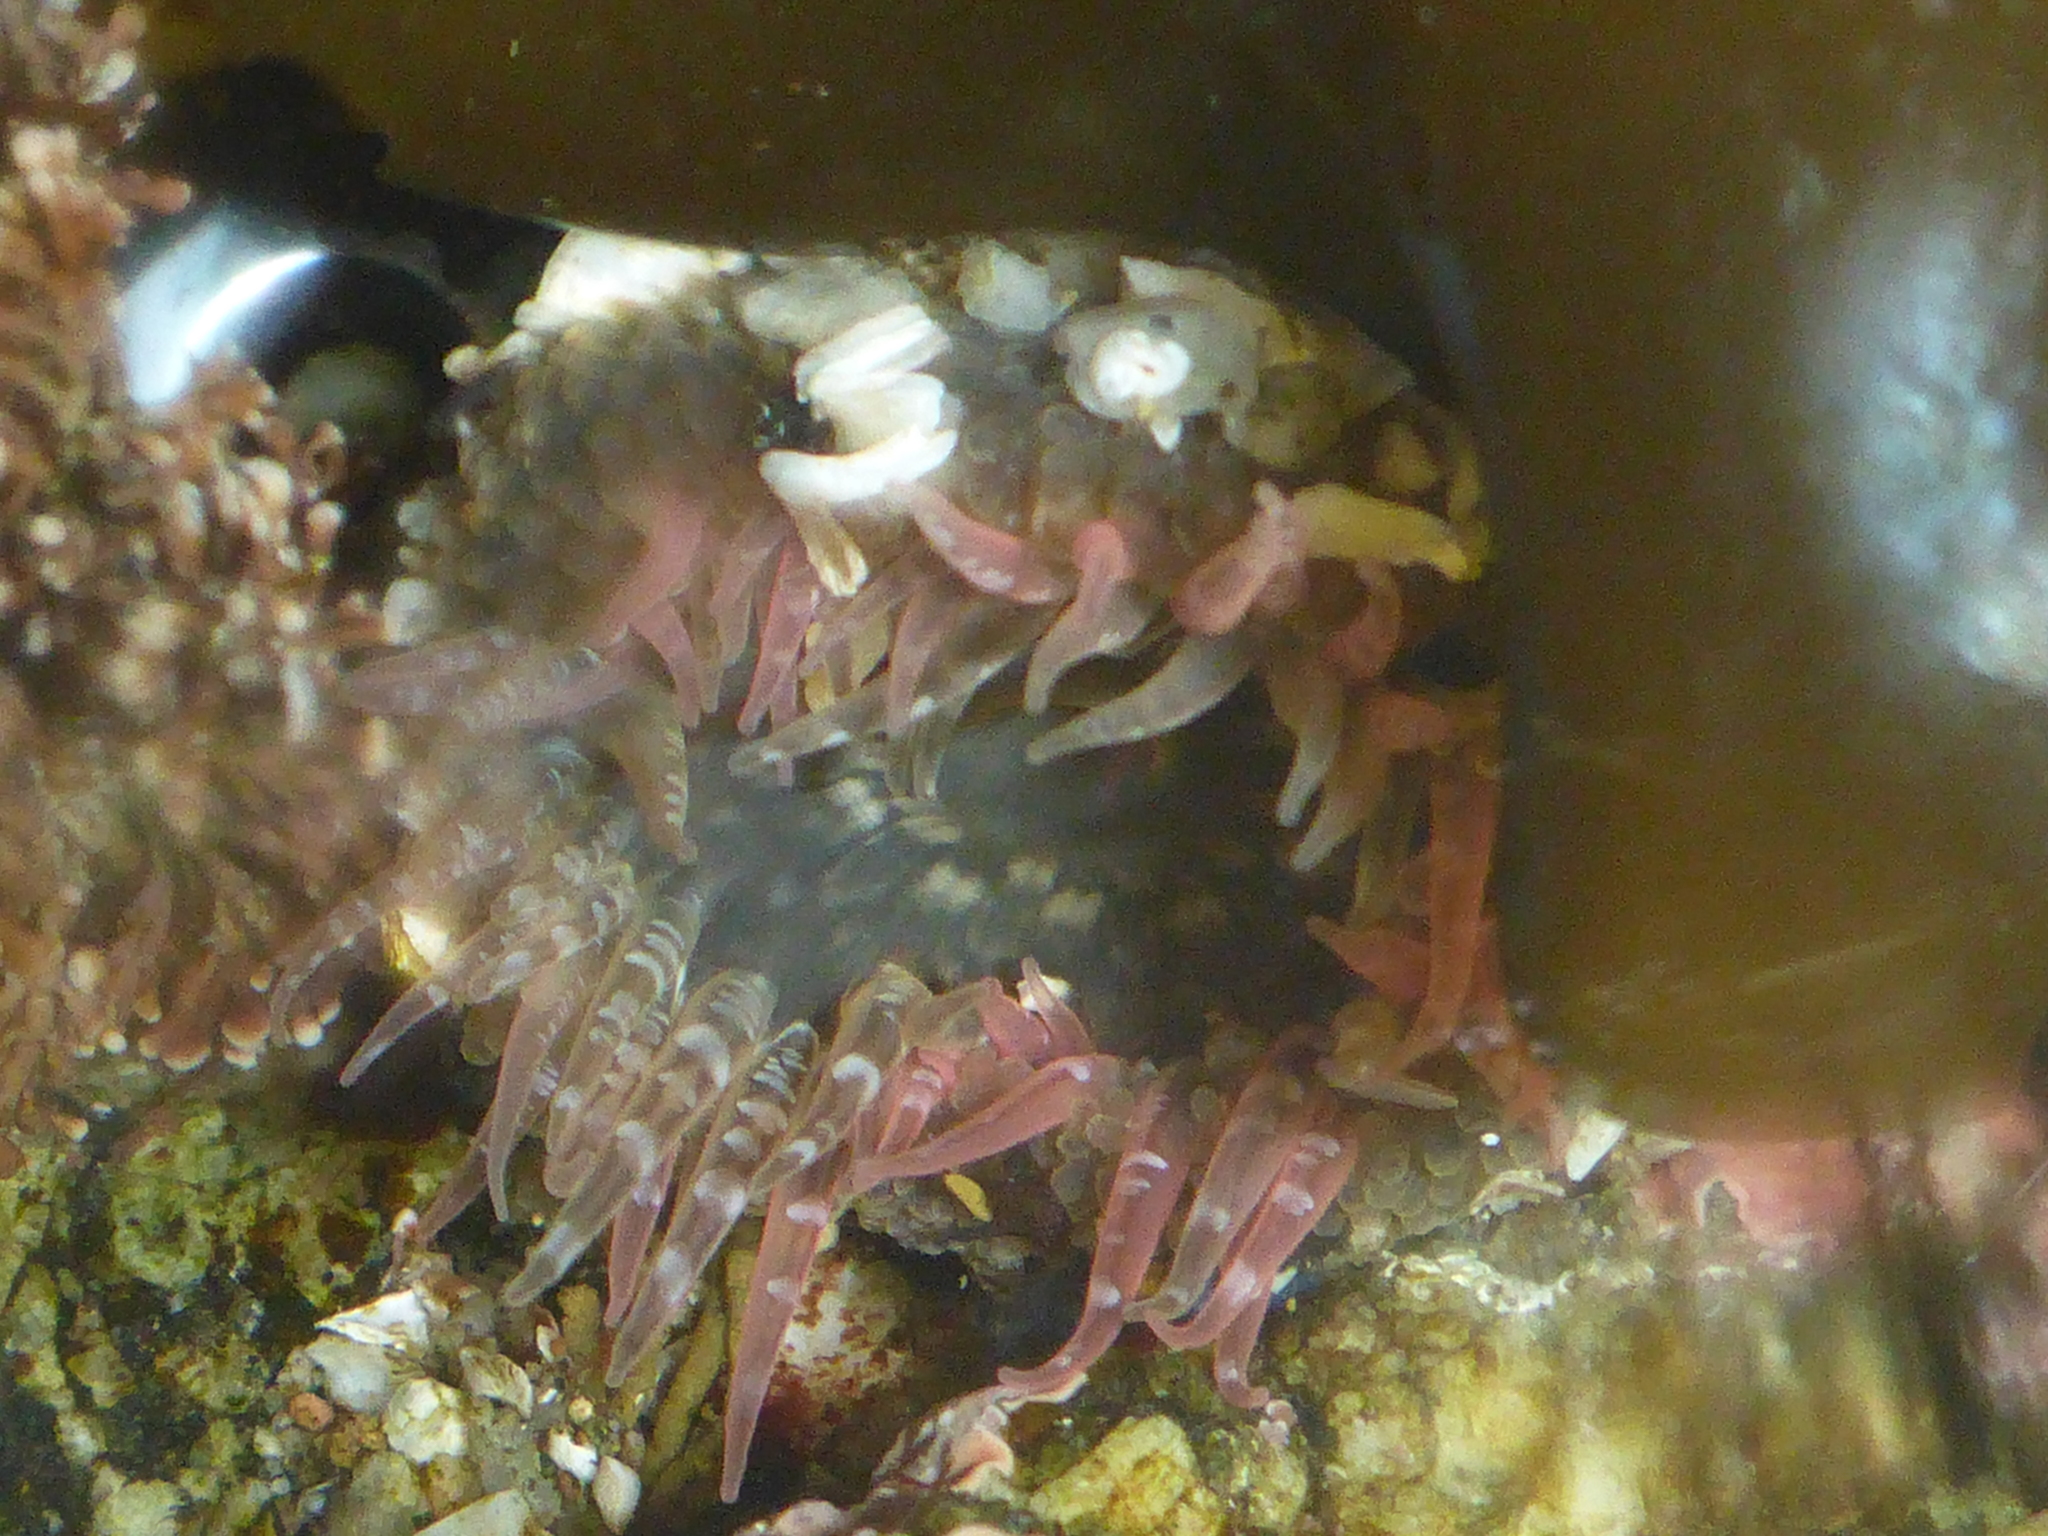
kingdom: Animalia
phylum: Cnidaria
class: Anthozoa
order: Actiniaria
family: Actiniidae
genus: Anthopleura
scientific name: Anthopleura artemisia
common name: Buried sea anemone
